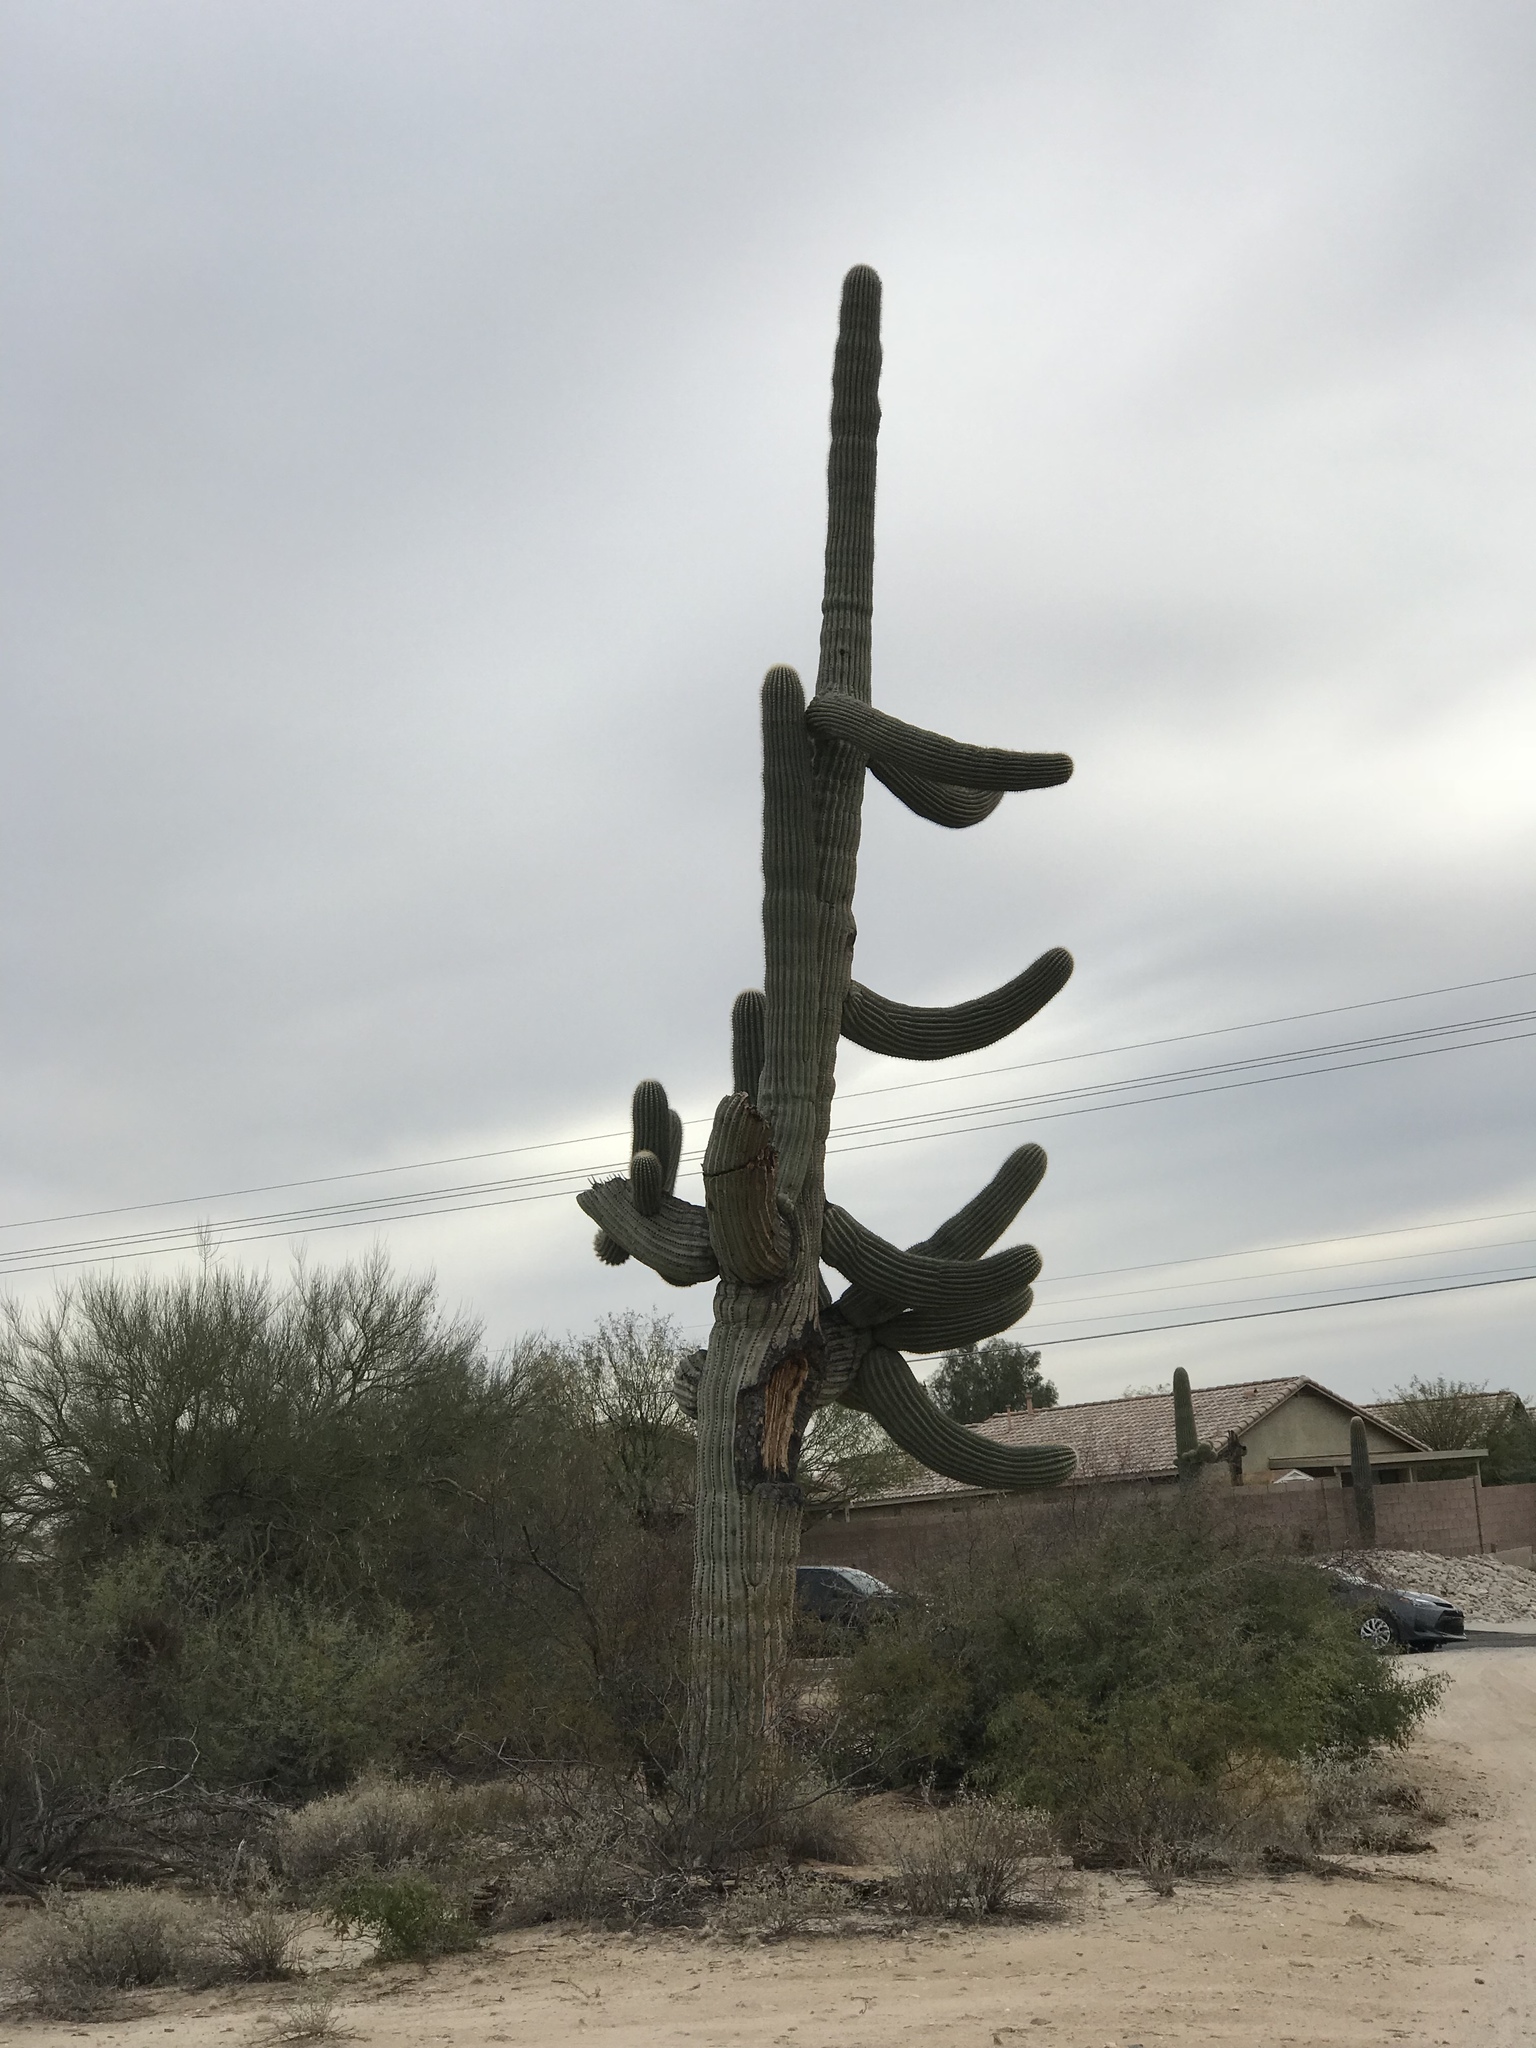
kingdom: Plantae
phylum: Tracheophyta
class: Magnoliopsida
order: Caryophyllales
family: Cactaceae
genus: Carnegiea
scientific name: Carnegiea gigantea
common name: Saguaro
